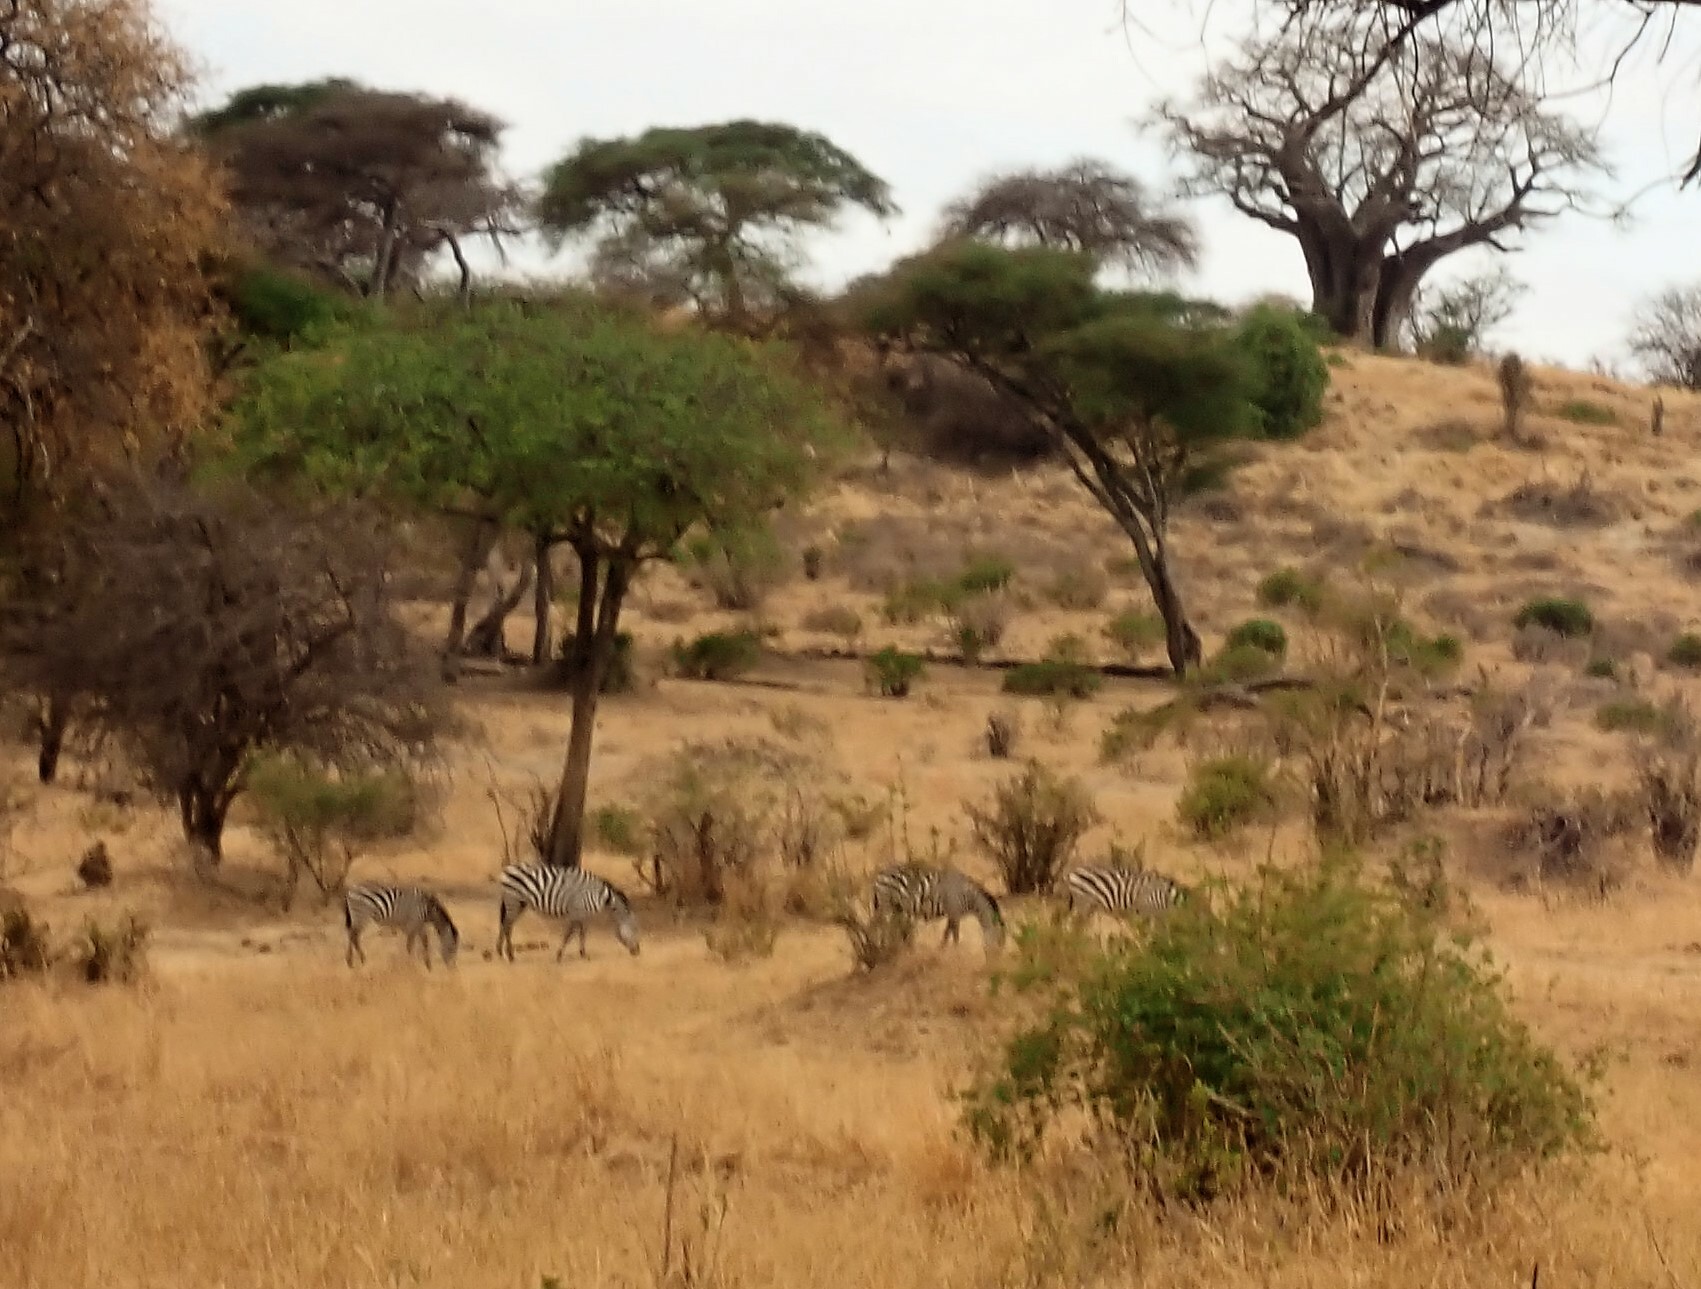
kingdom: Animalia
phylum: Chordata
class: Mammalia
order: Perissodactyla
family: Equidae
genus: Equus
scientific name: Equus quagga
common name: Plains zebra
